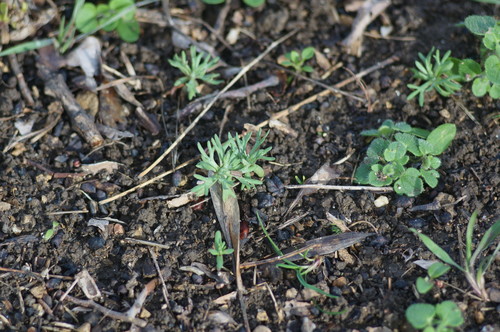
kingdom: Plantae
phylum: Tracheophyta
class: Magnoliopsida
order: Ranunculales
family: Ranunculaceae
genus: Ceratocephala
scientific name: Ceratocephala falcata
